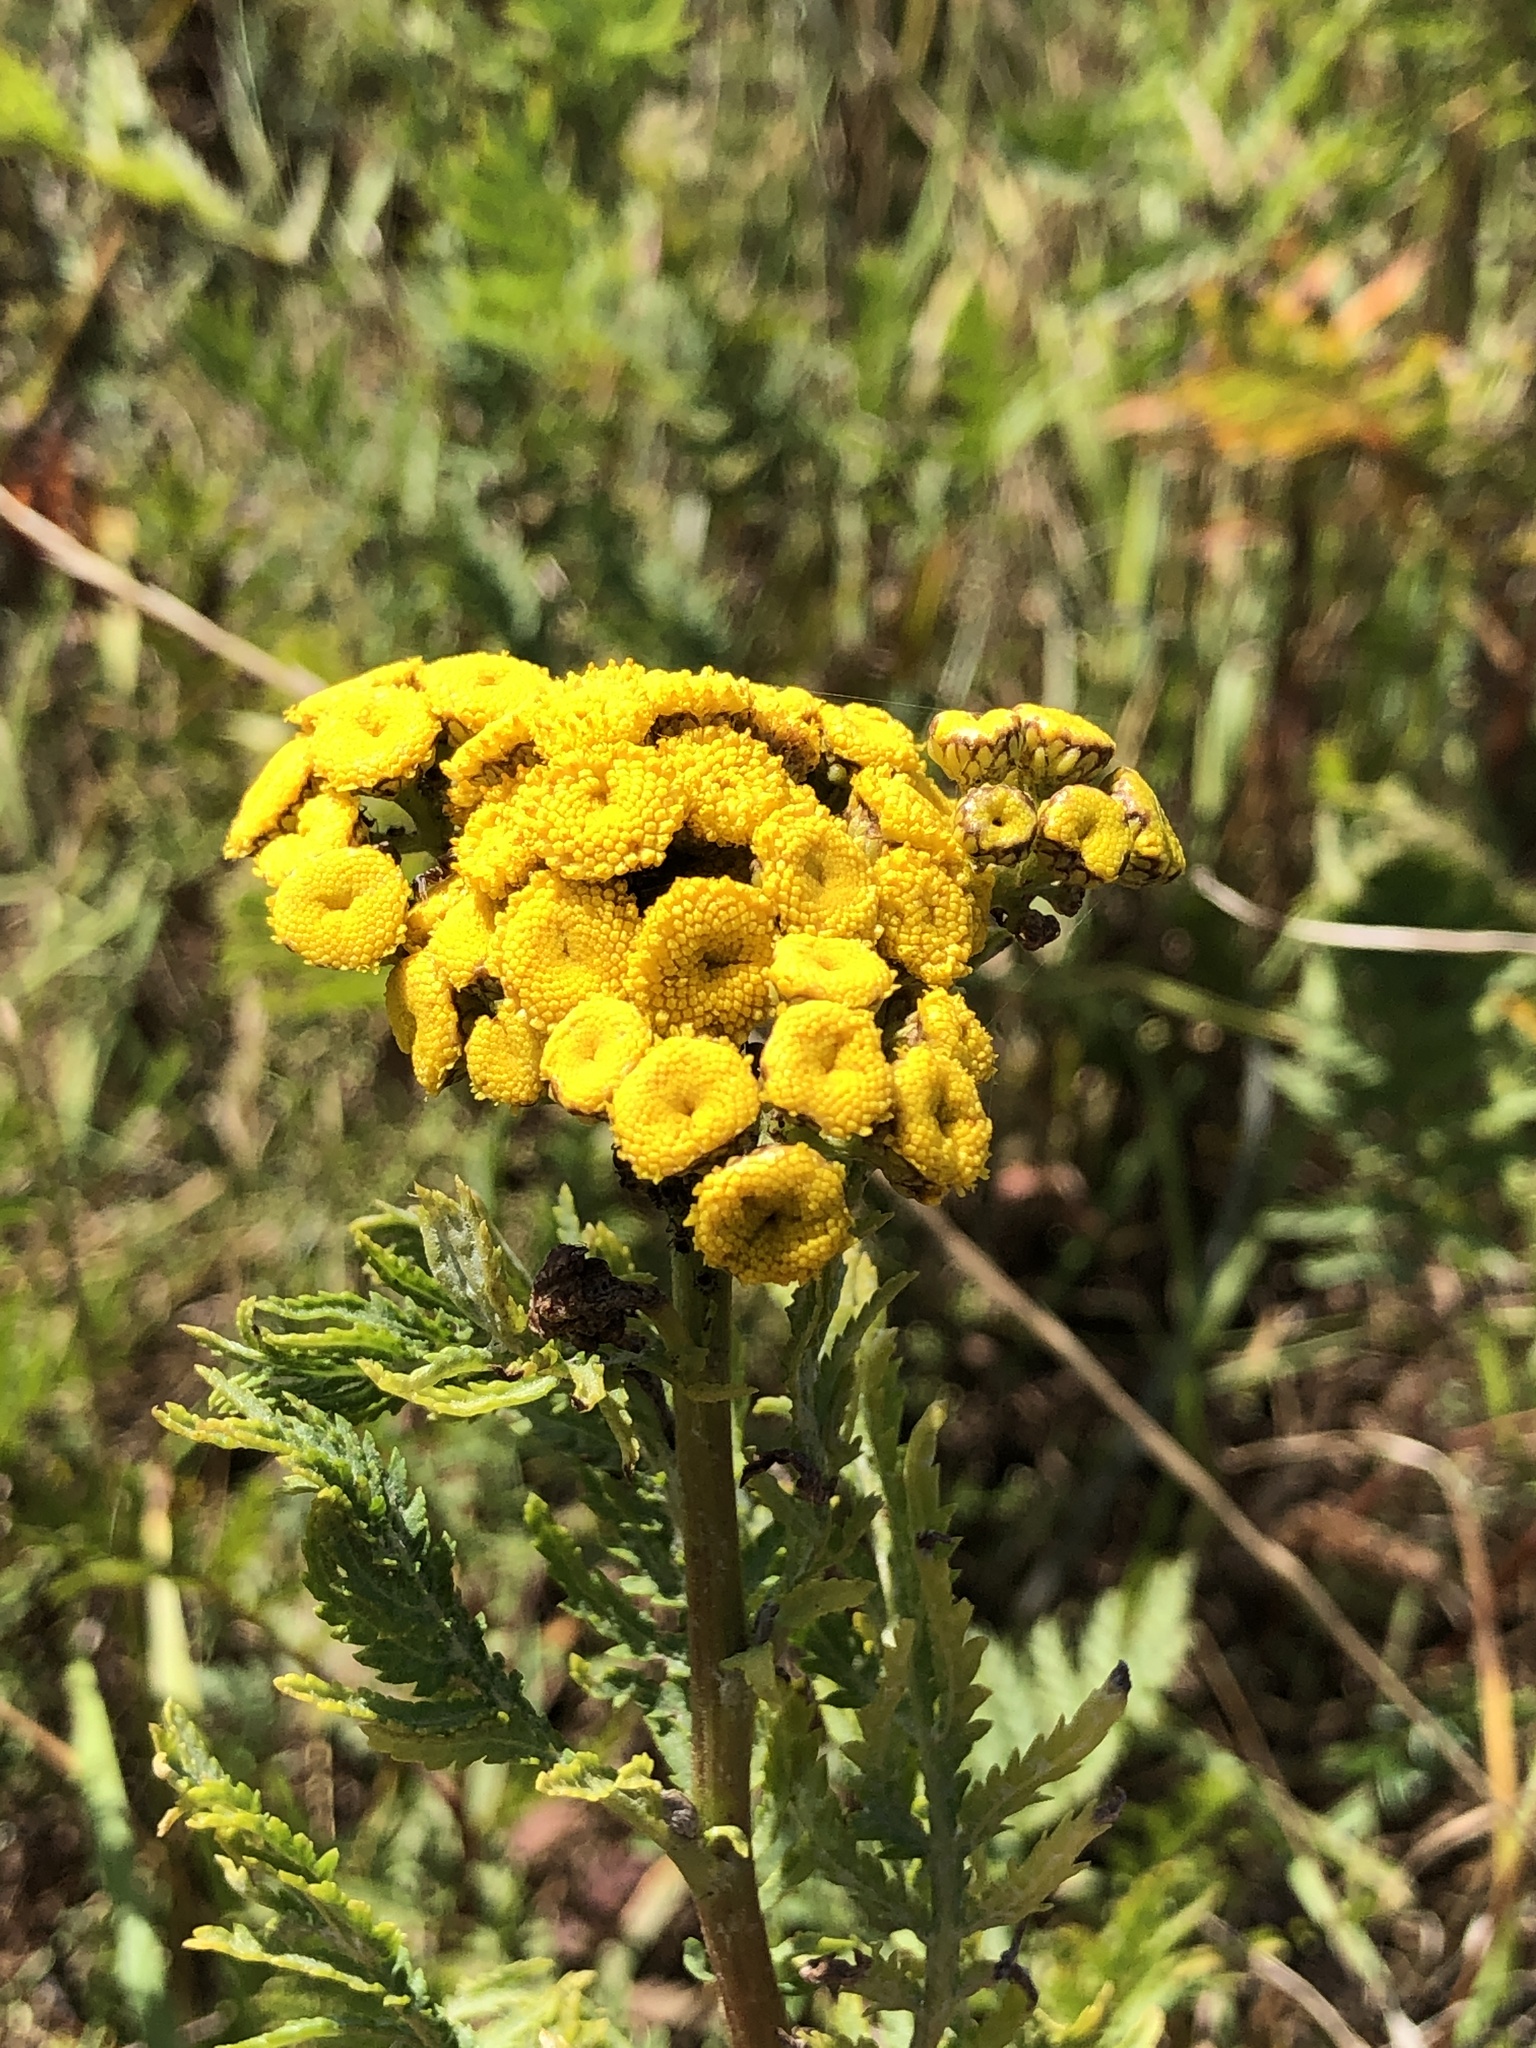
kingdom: Plantae
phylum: Tracheophyta
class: Magnoliopsida
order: Asterales
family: Asteraceae
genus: Tanacetum
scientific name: Tanacetum vulgare
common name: Common tansy
